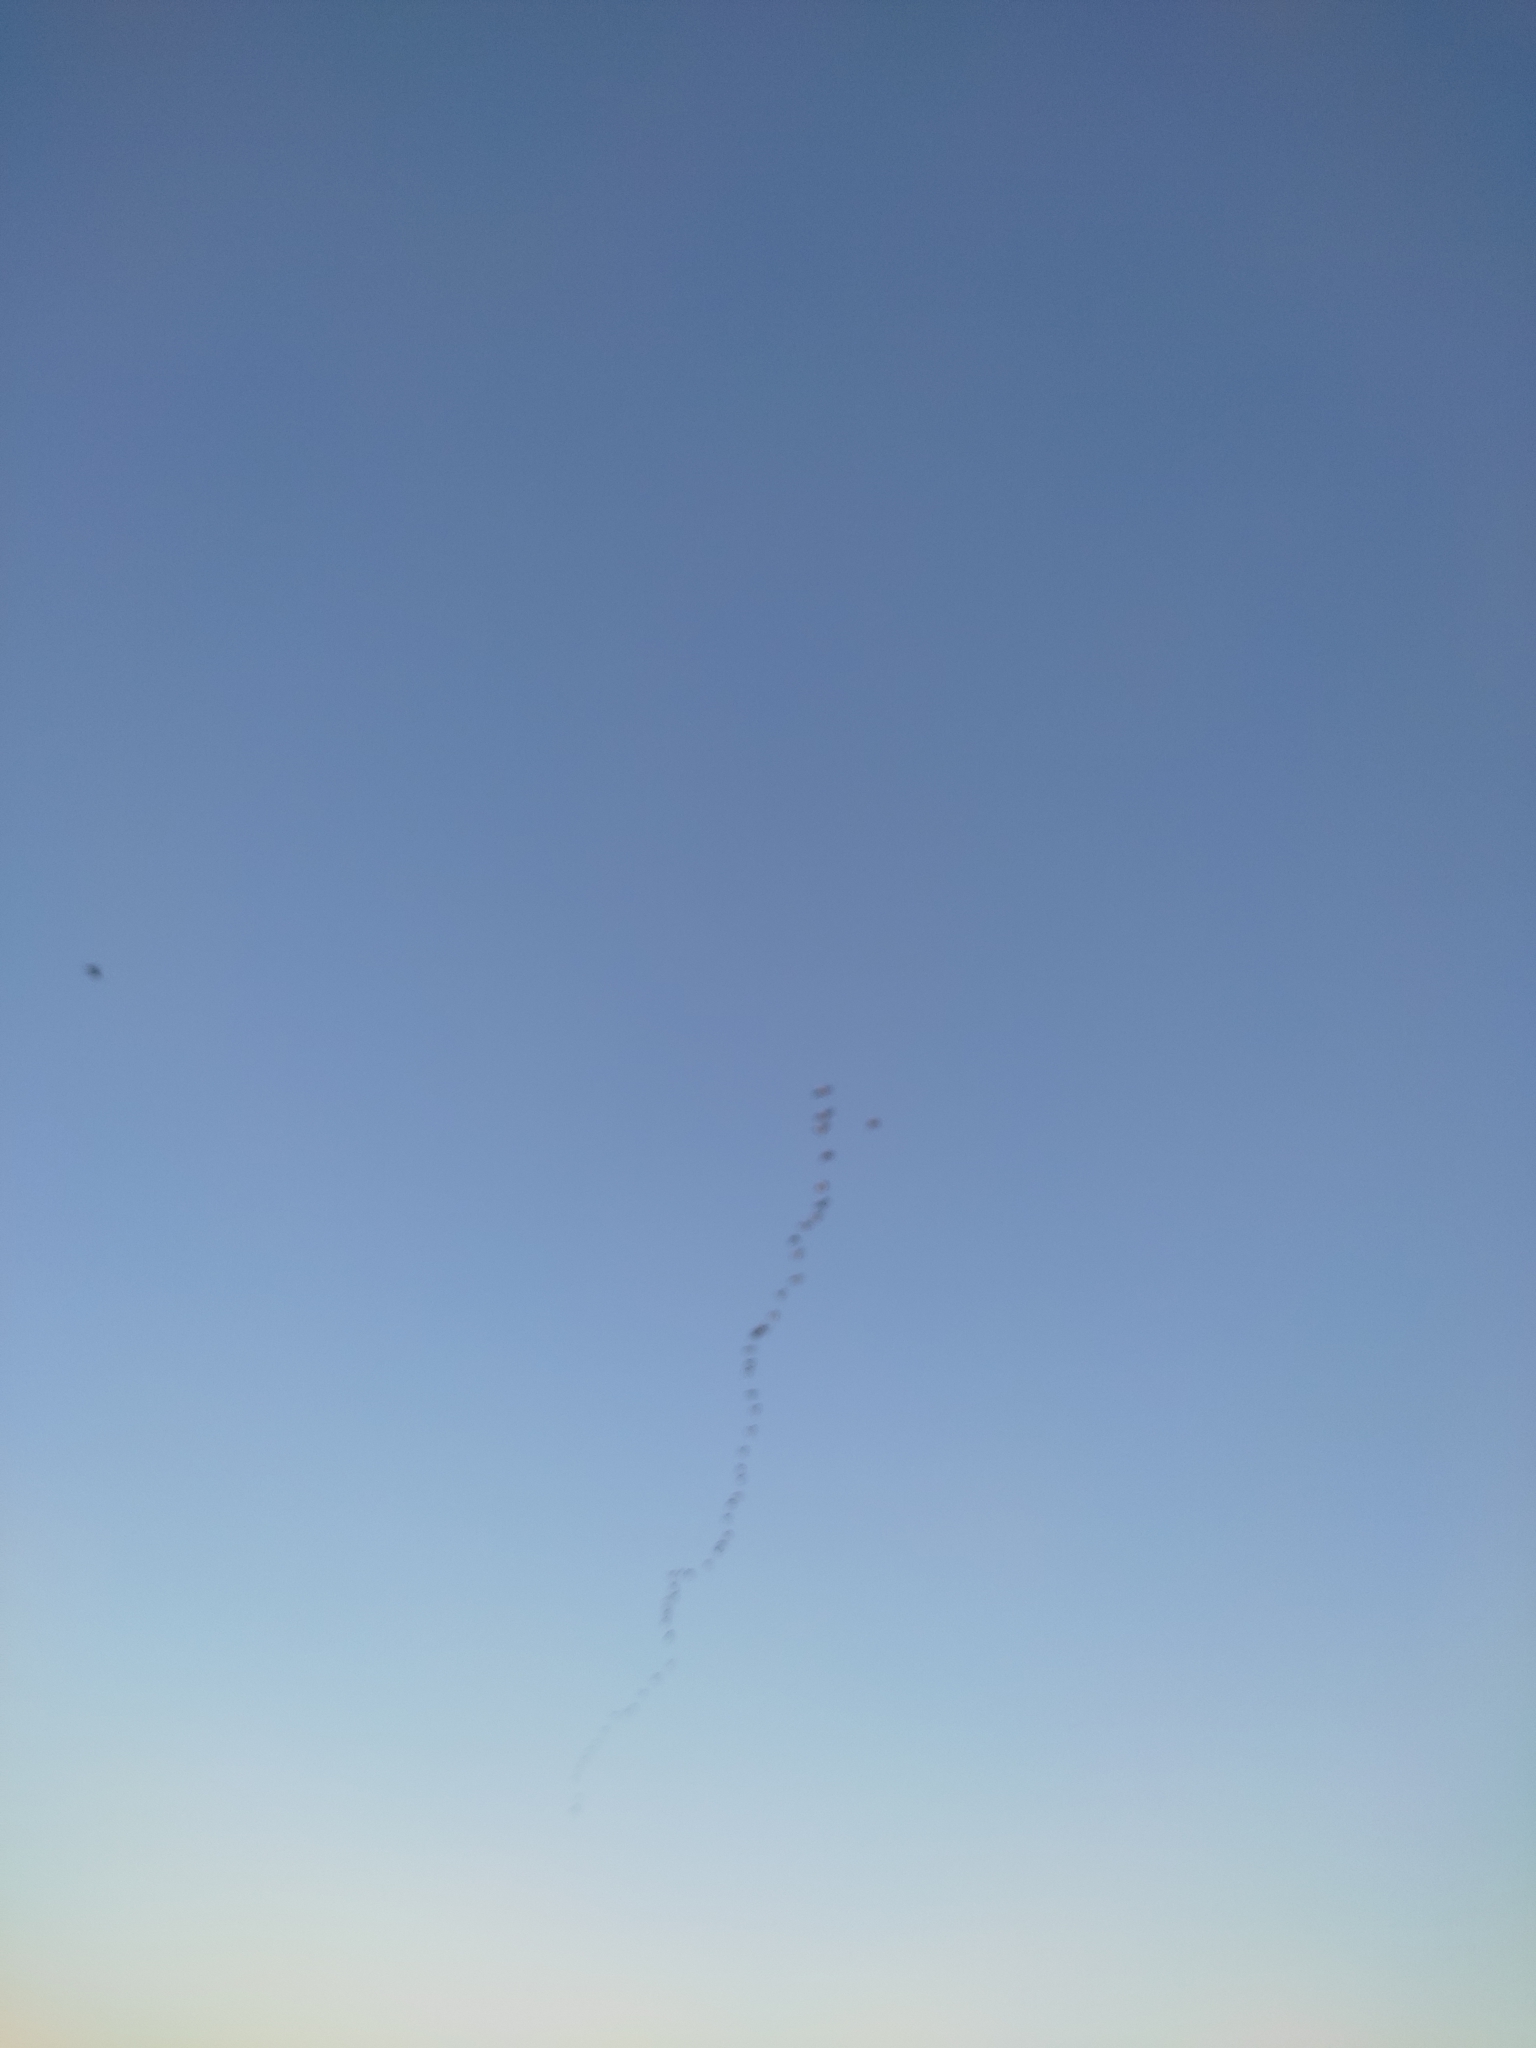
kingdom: Animalia
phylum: Chordata
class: Aves
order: Suliformes
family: Phalacrocoracidae
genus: Phalacrocorax
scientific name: Phalacrocorax carbo
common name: Great cormorant
